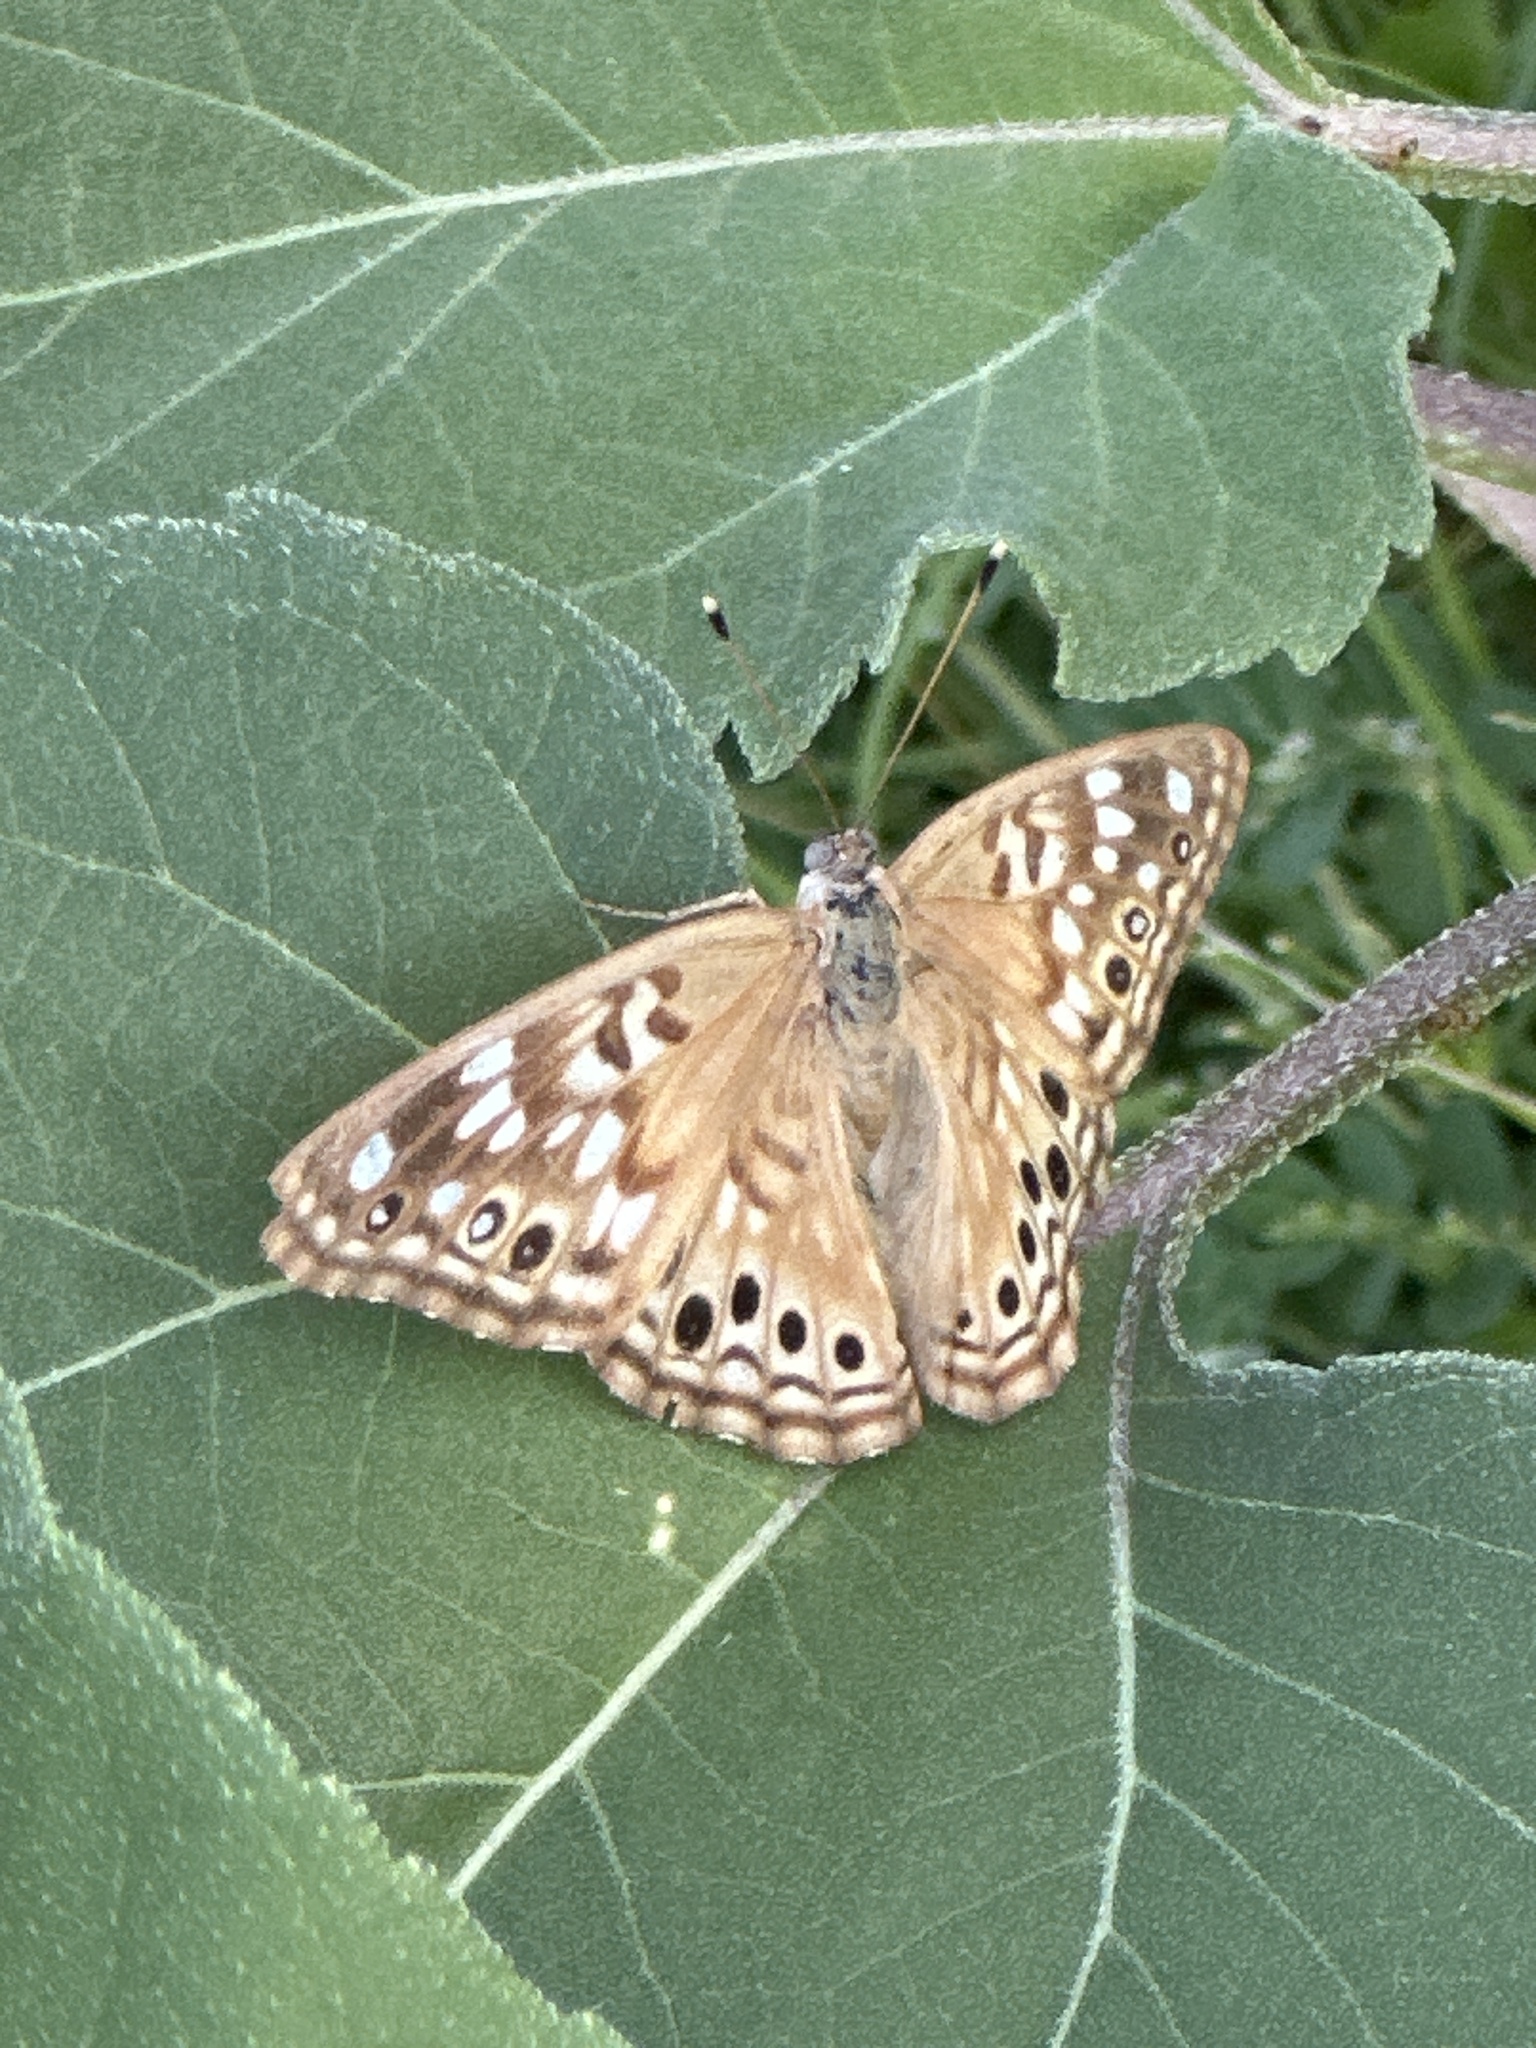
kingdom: Animalia
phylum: Arthropoda
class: Insecta
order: Lepidoptera
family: Nymphalidae
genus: Asterocampa
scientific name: Asterocampa celtis
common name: Hackberry emperor
